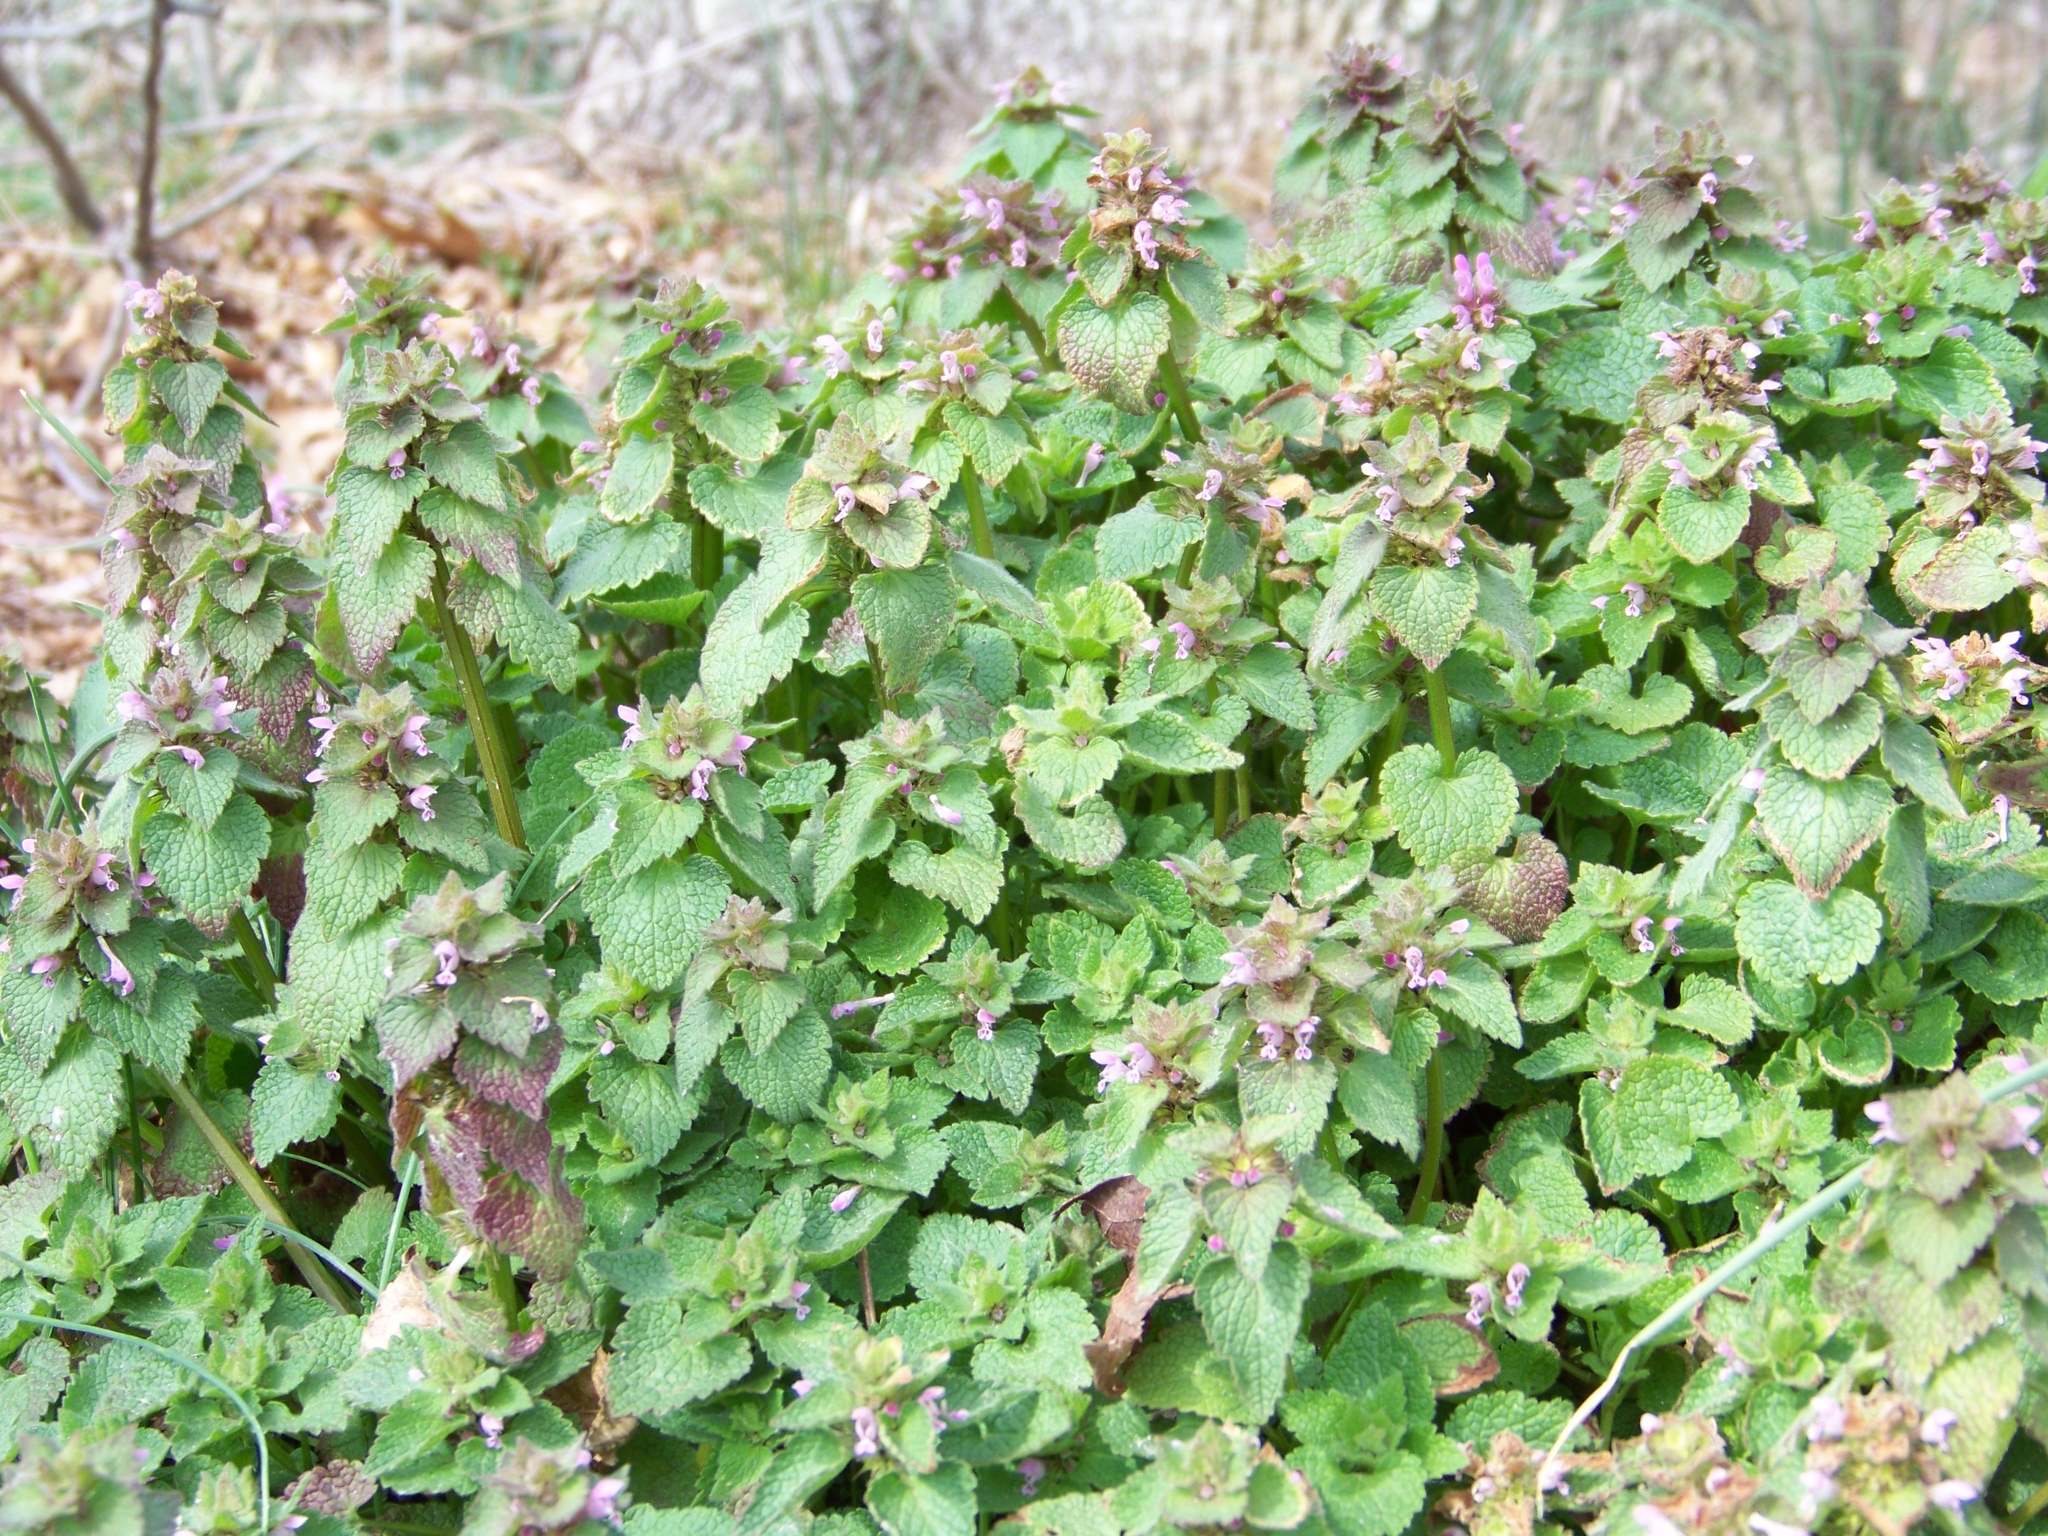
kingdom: Plantae
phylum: Tracheophyta
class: Magnoliopsida
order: Lamiales
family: Lamiaceae
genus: Lamium
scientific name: Lamium purpureum
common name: Red dead-nettle
